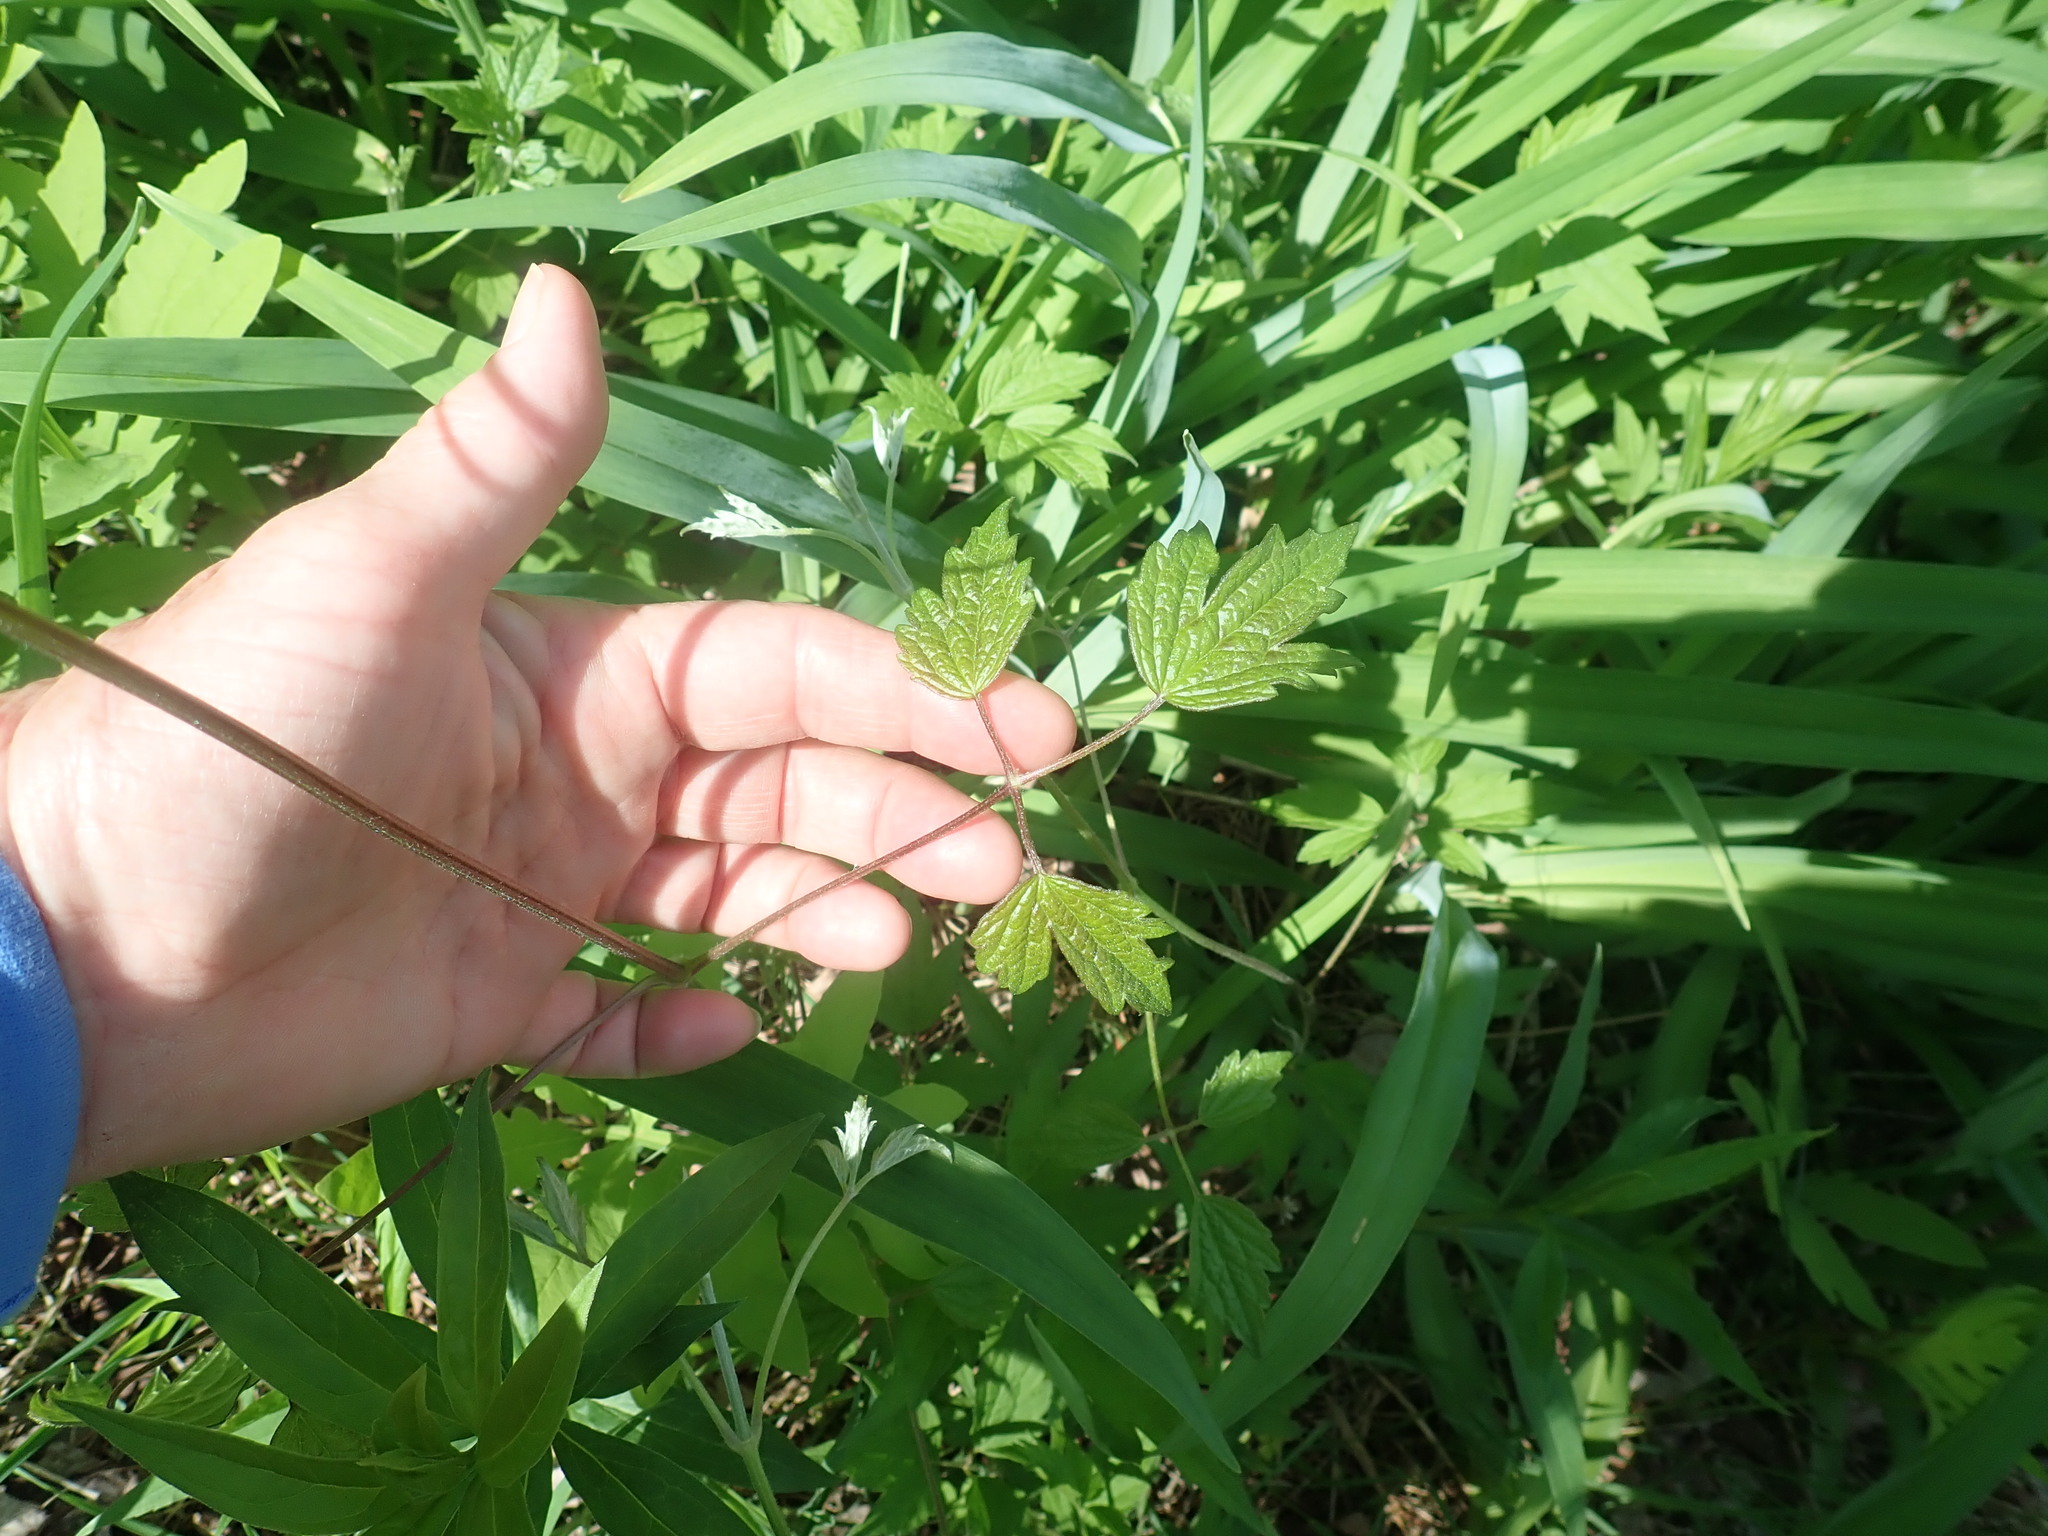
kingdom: Plantae
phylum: Tracheophyta
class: Magnoliopsida
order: Ranunculales
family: Ranunculaceae
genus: Clematis
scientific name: Clematis virginiana
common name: Virgin's-bower
